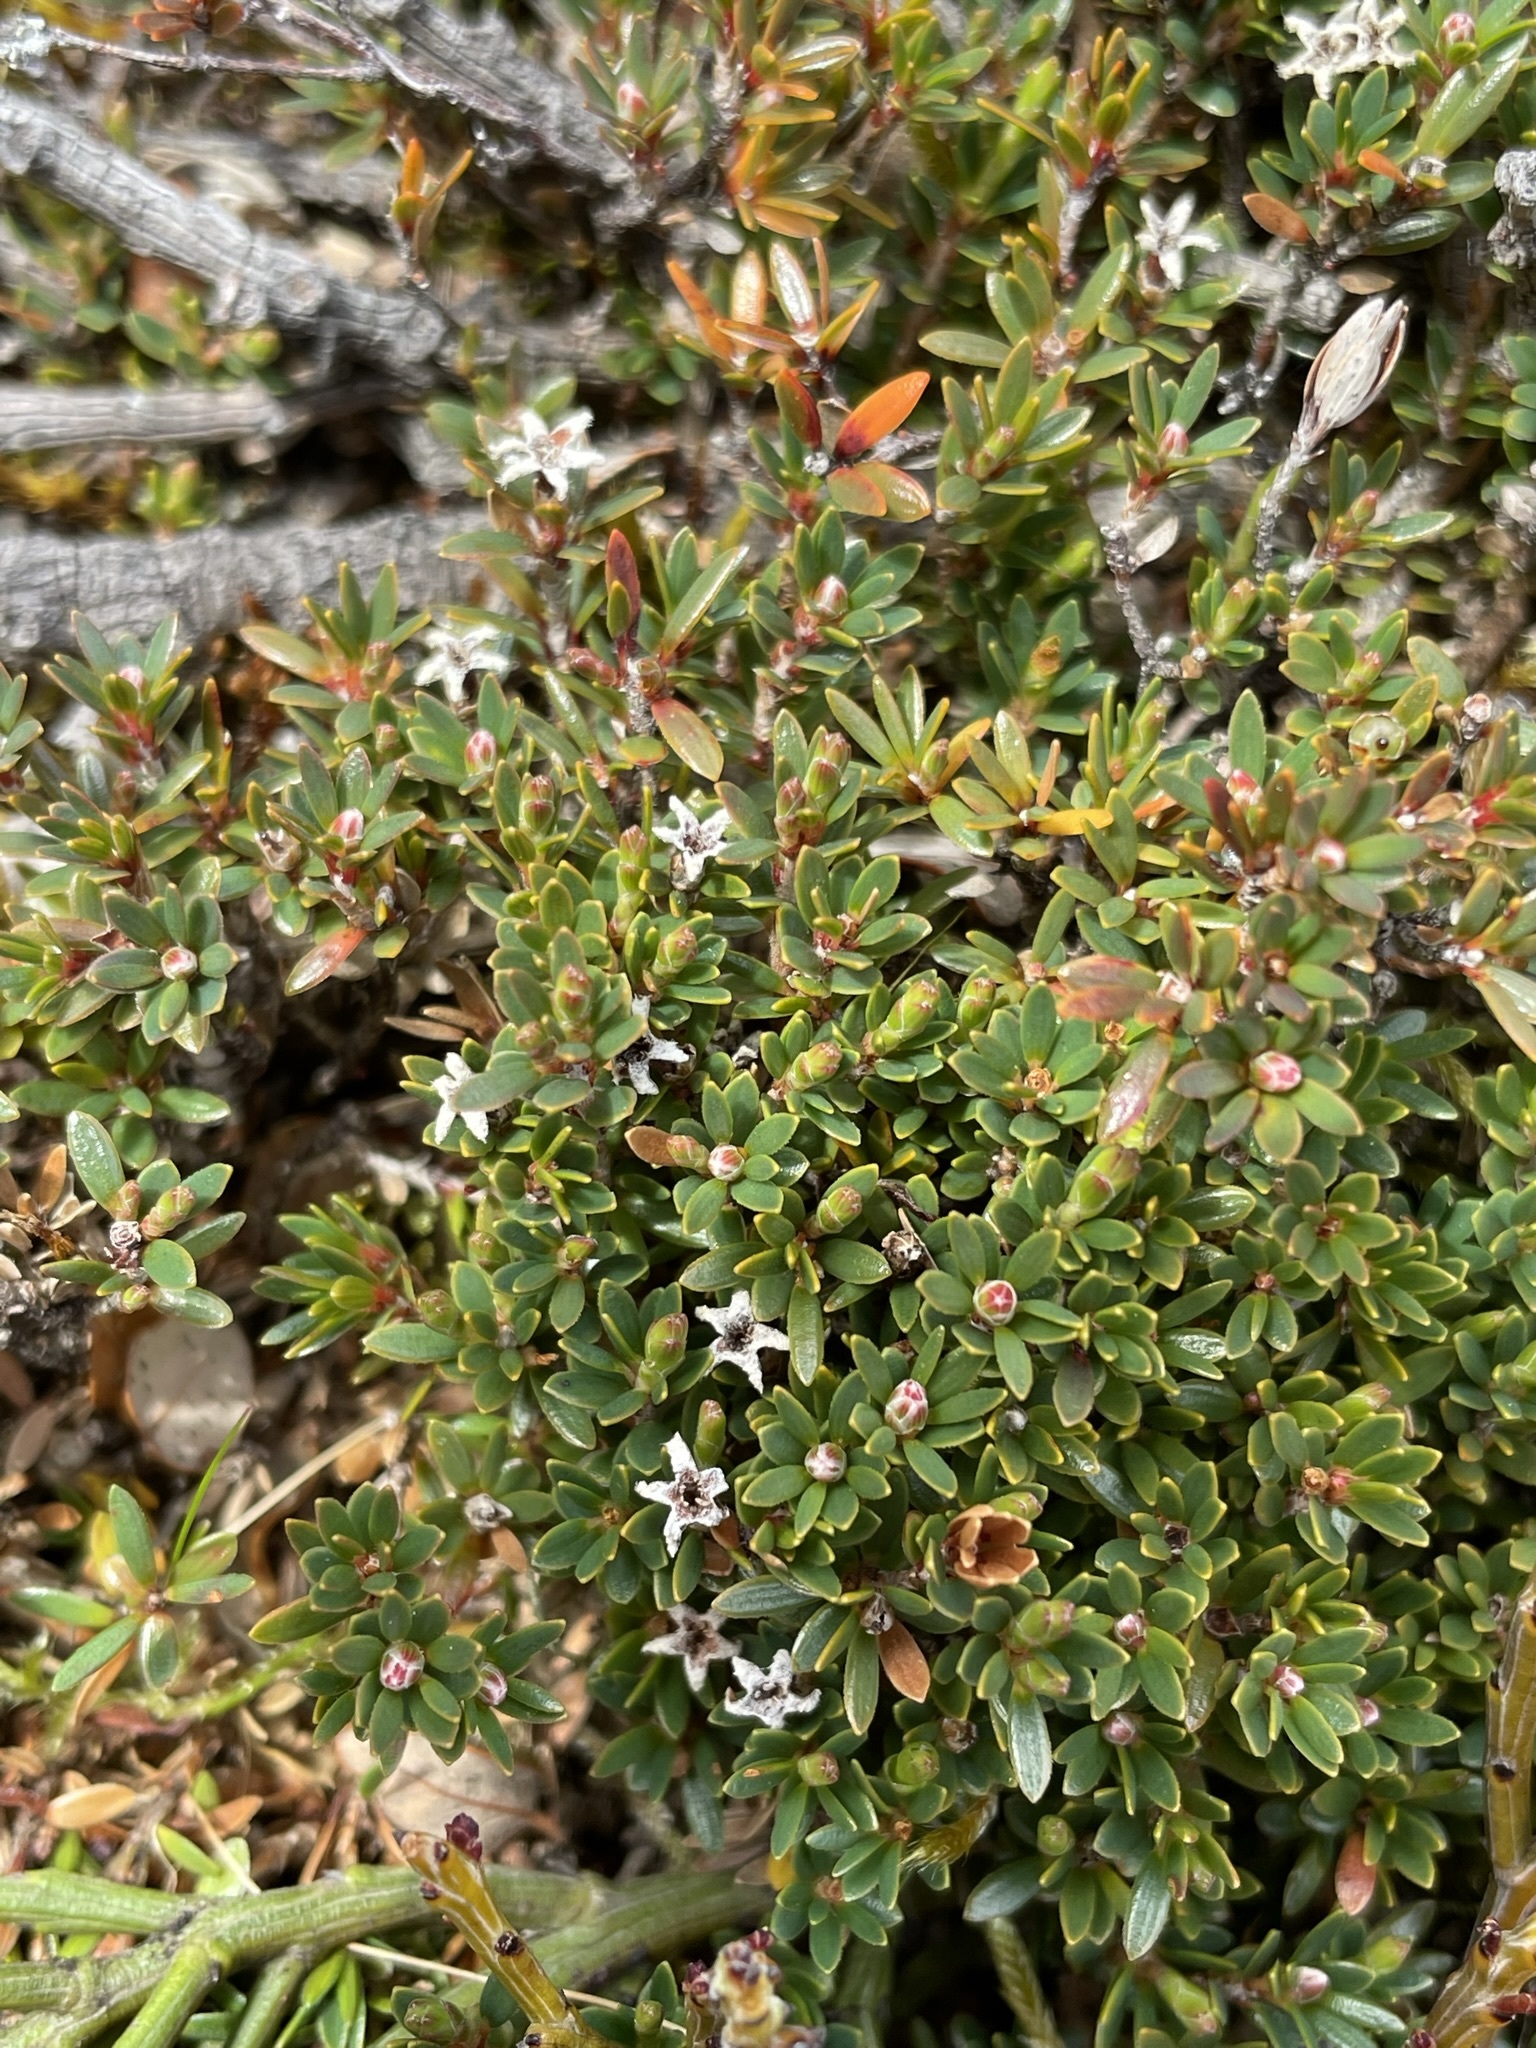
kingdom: Plantae
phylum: Tracheophyta
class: Magnoliopsida
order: Ericales
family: Ericaceae
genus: Pentachondra
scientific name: Pentachondra pumila
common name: Carpet-heath
